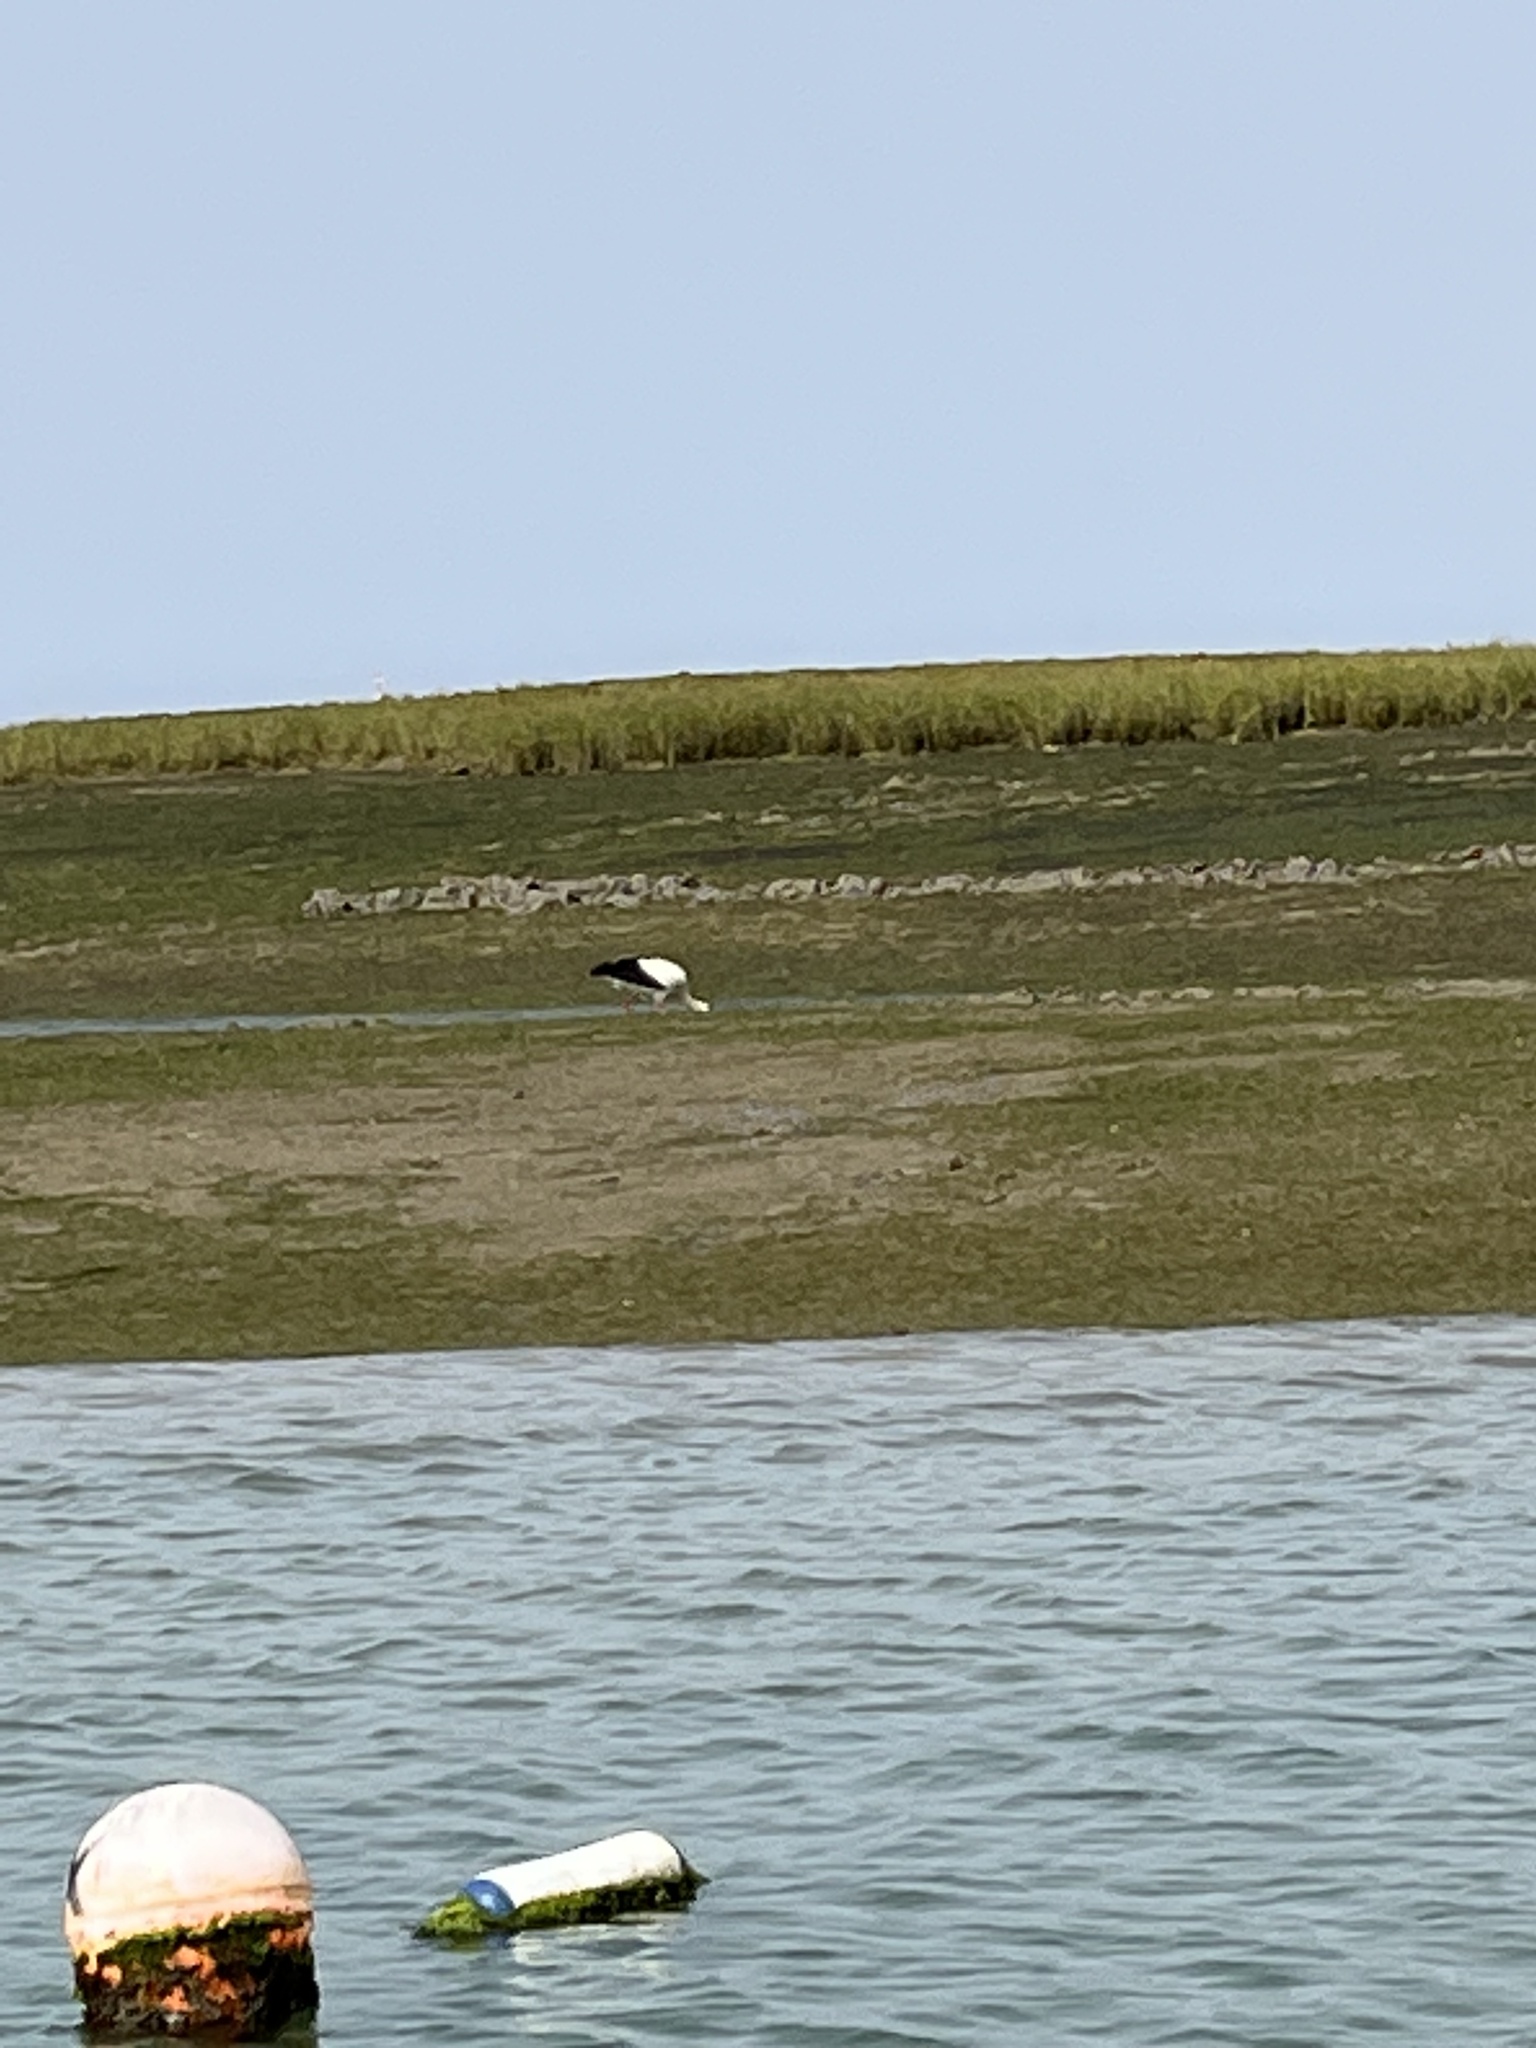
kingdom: Animalia
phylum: Chordata
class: Aves
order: Ciconiiformes
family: Ciconiidae
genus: Ciconia
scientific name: Ciconia ciconia
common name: White stork
